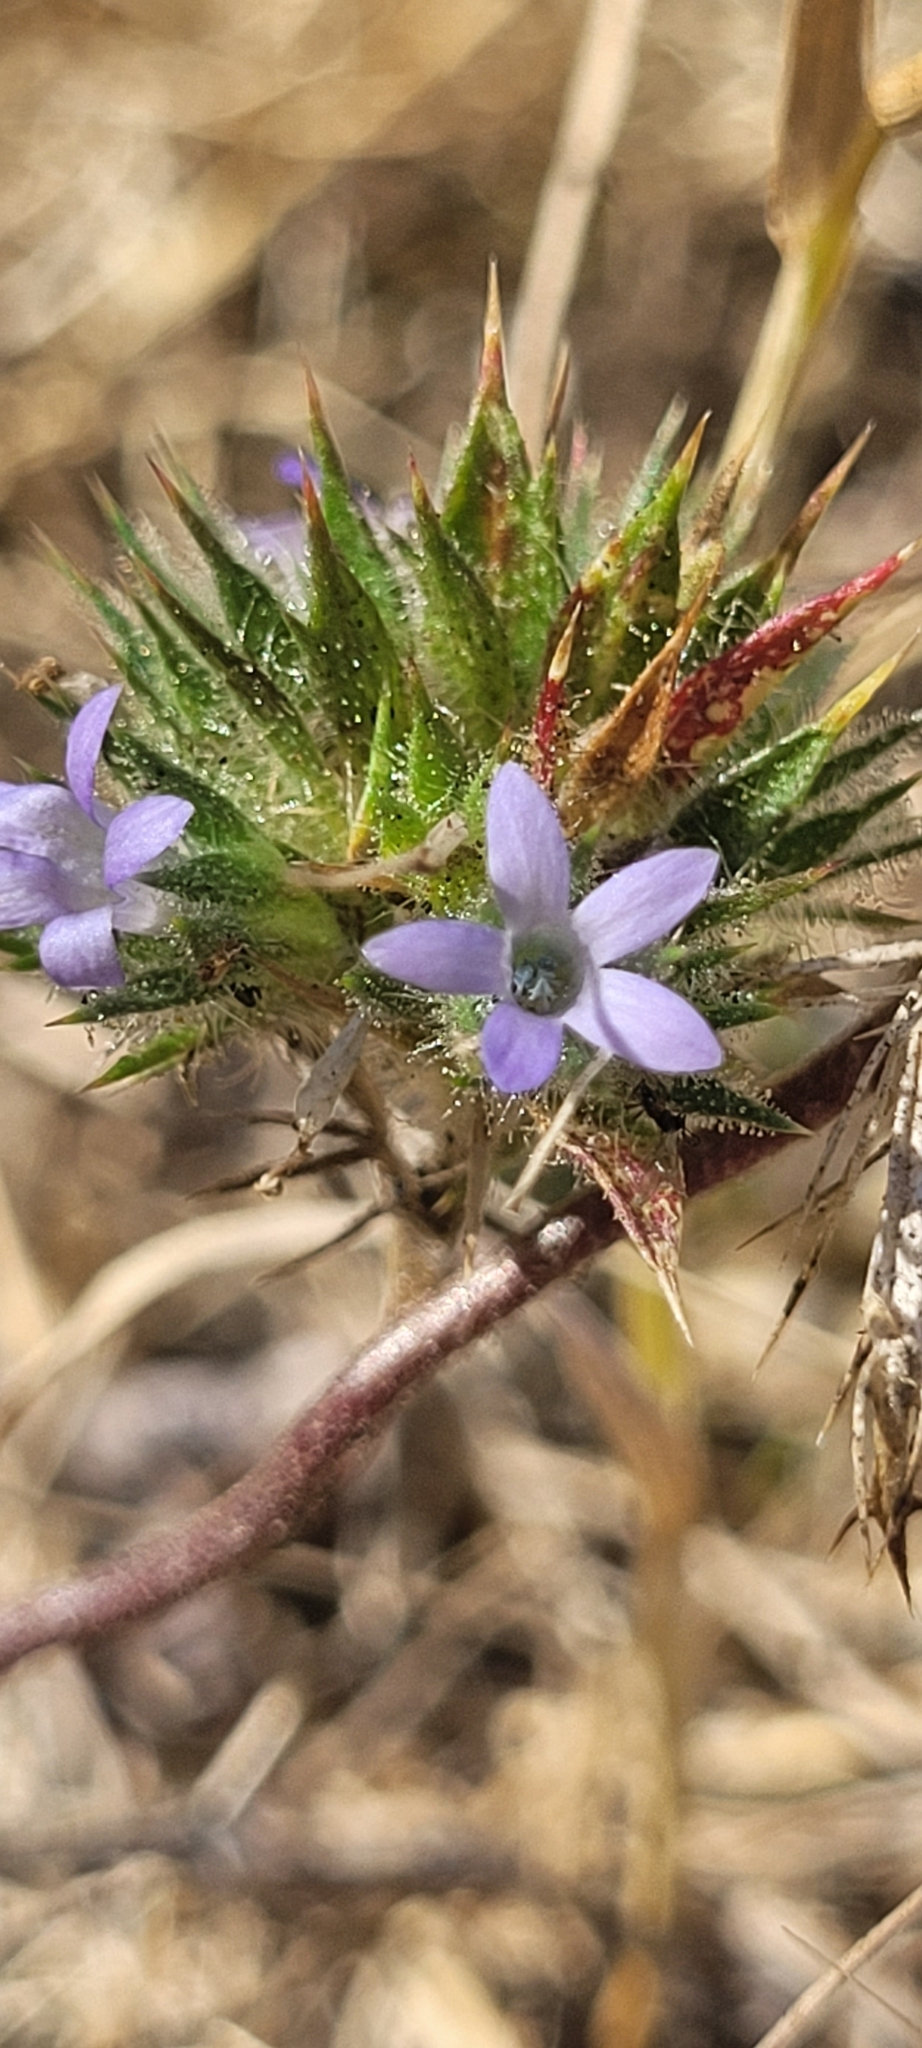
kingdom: Plantae
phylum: Tracheophyta
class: Magnoliopsida
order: Ericales
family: Polemoniaceae
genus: Navarretia
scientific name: Navarretia squarrosa
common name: Skunkweed
